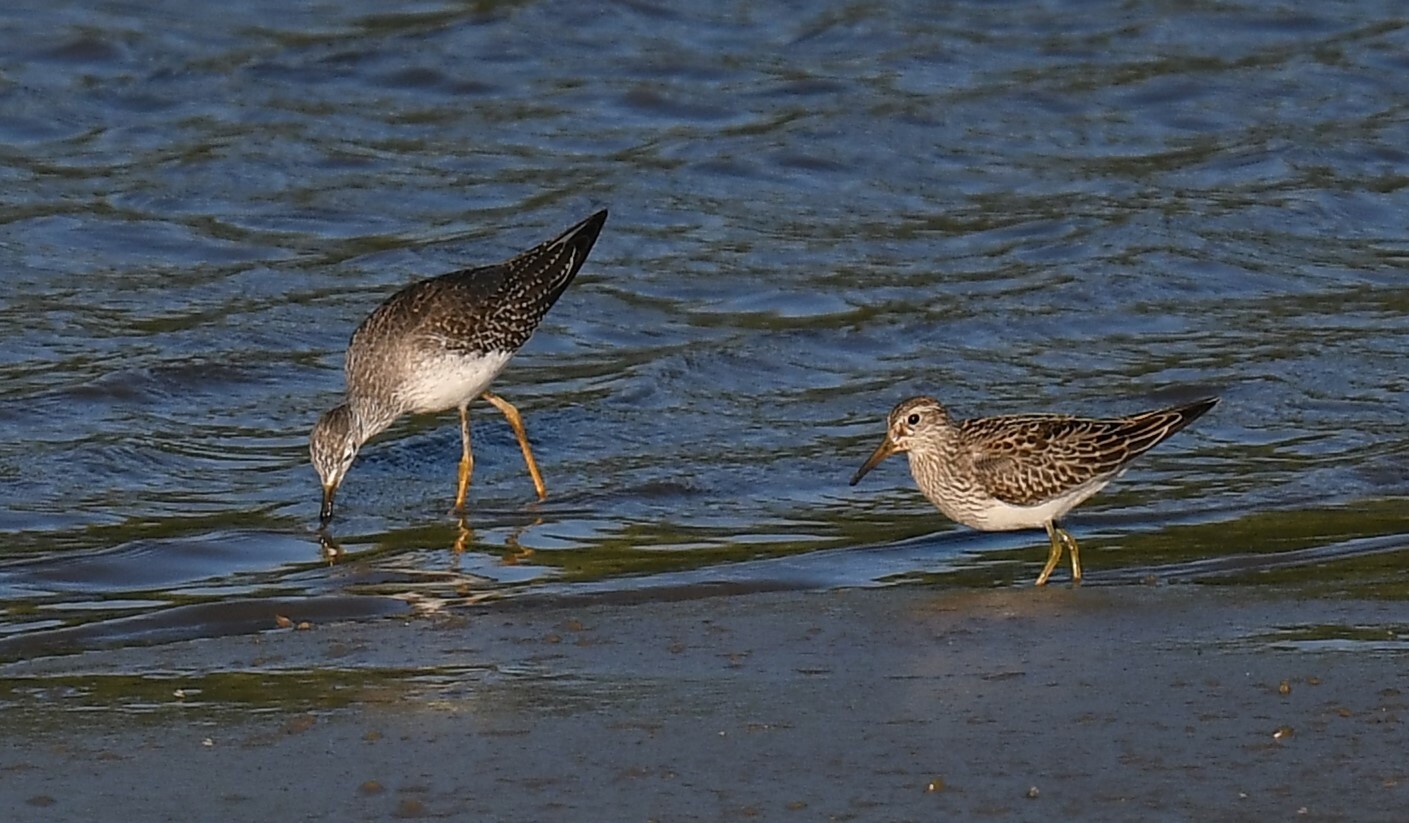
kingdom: Animalia
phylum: Chordata
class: Aves
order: Charadriiformes
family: Scolopacidae
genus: Calidris
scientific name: Calidris melanotos
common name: Pectoral sandpiper
